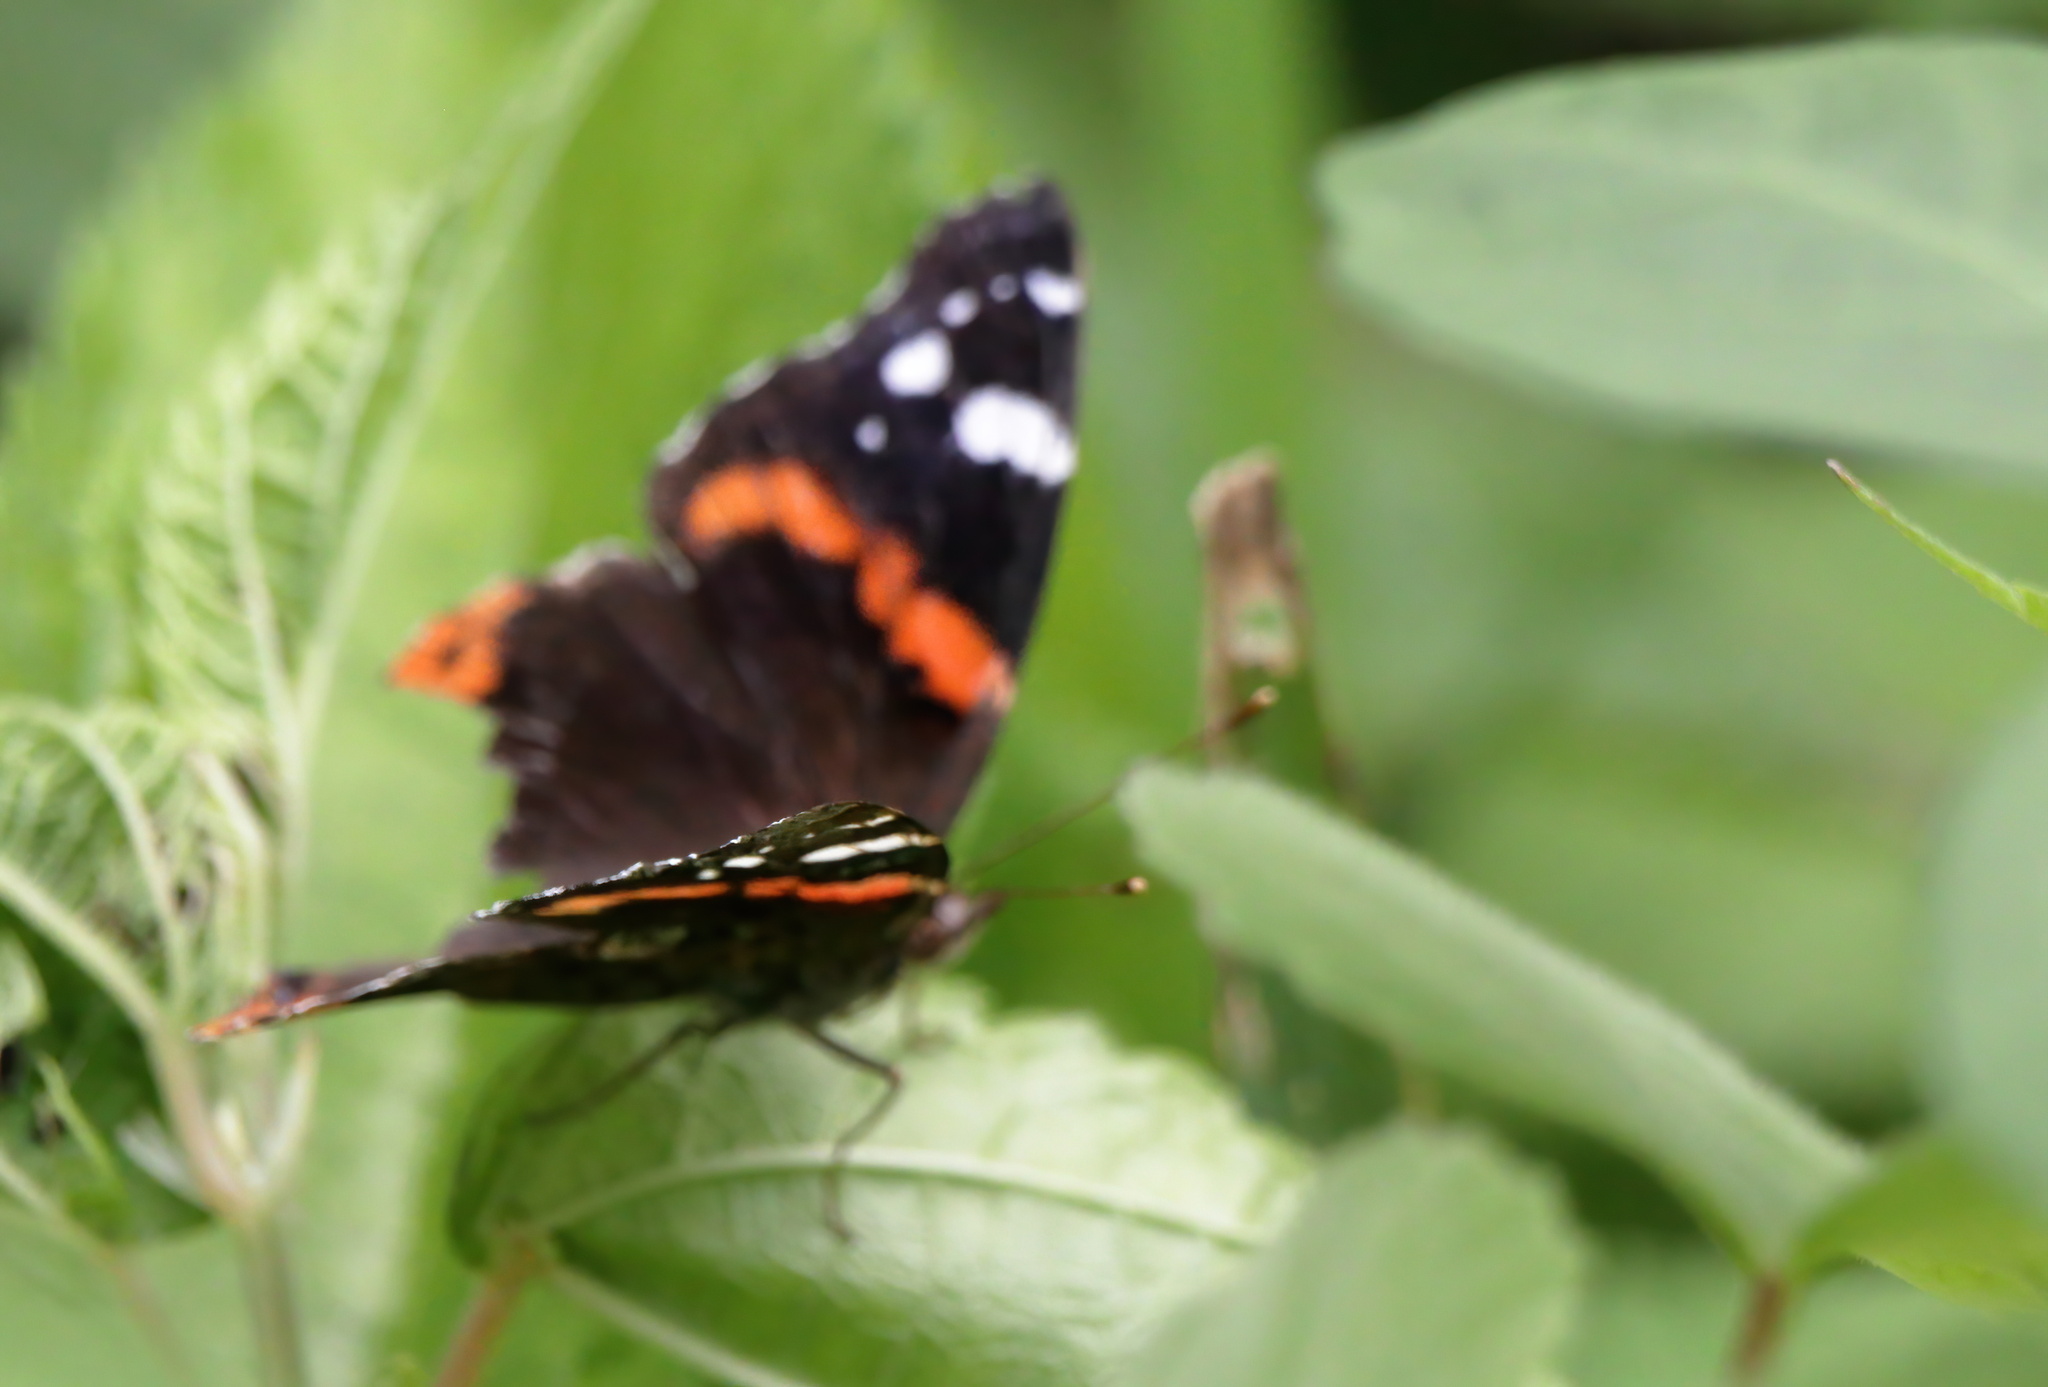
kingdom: Animalia
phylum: Arthropoda
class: Insecta
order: Lepidoptera
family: Nymphalidae
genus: Vanessa
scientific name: Vanessa atalanta
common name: Red admiral
